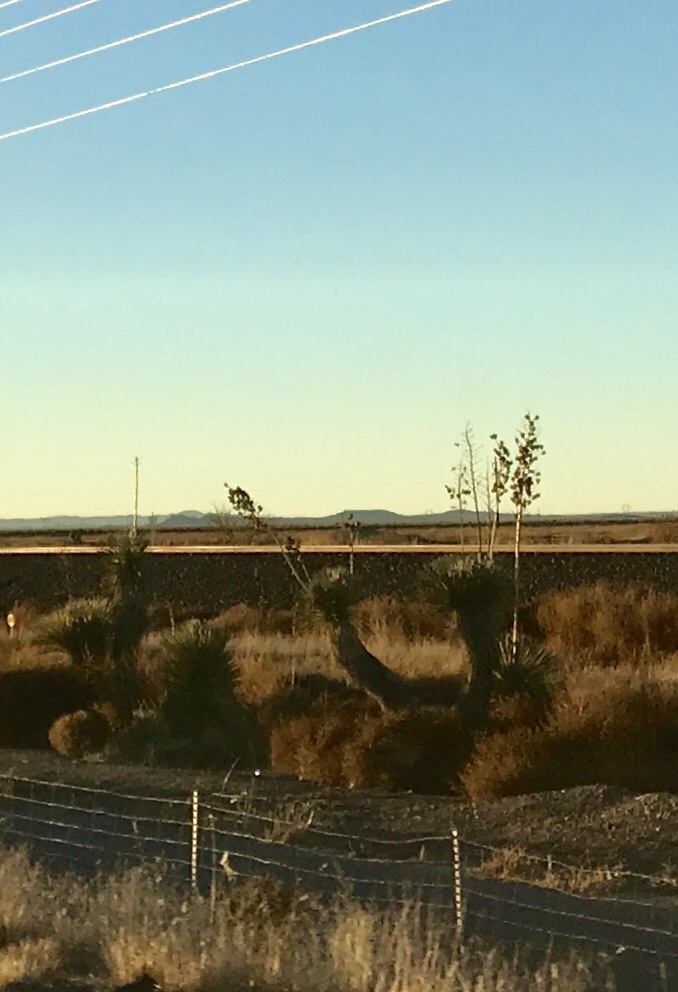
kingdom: Plantae
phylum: Tracheophyta
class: Liliopsida
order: Asparagales
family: Asparagaceae
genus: Yucca
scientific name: Yucca elata
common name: Palmella
